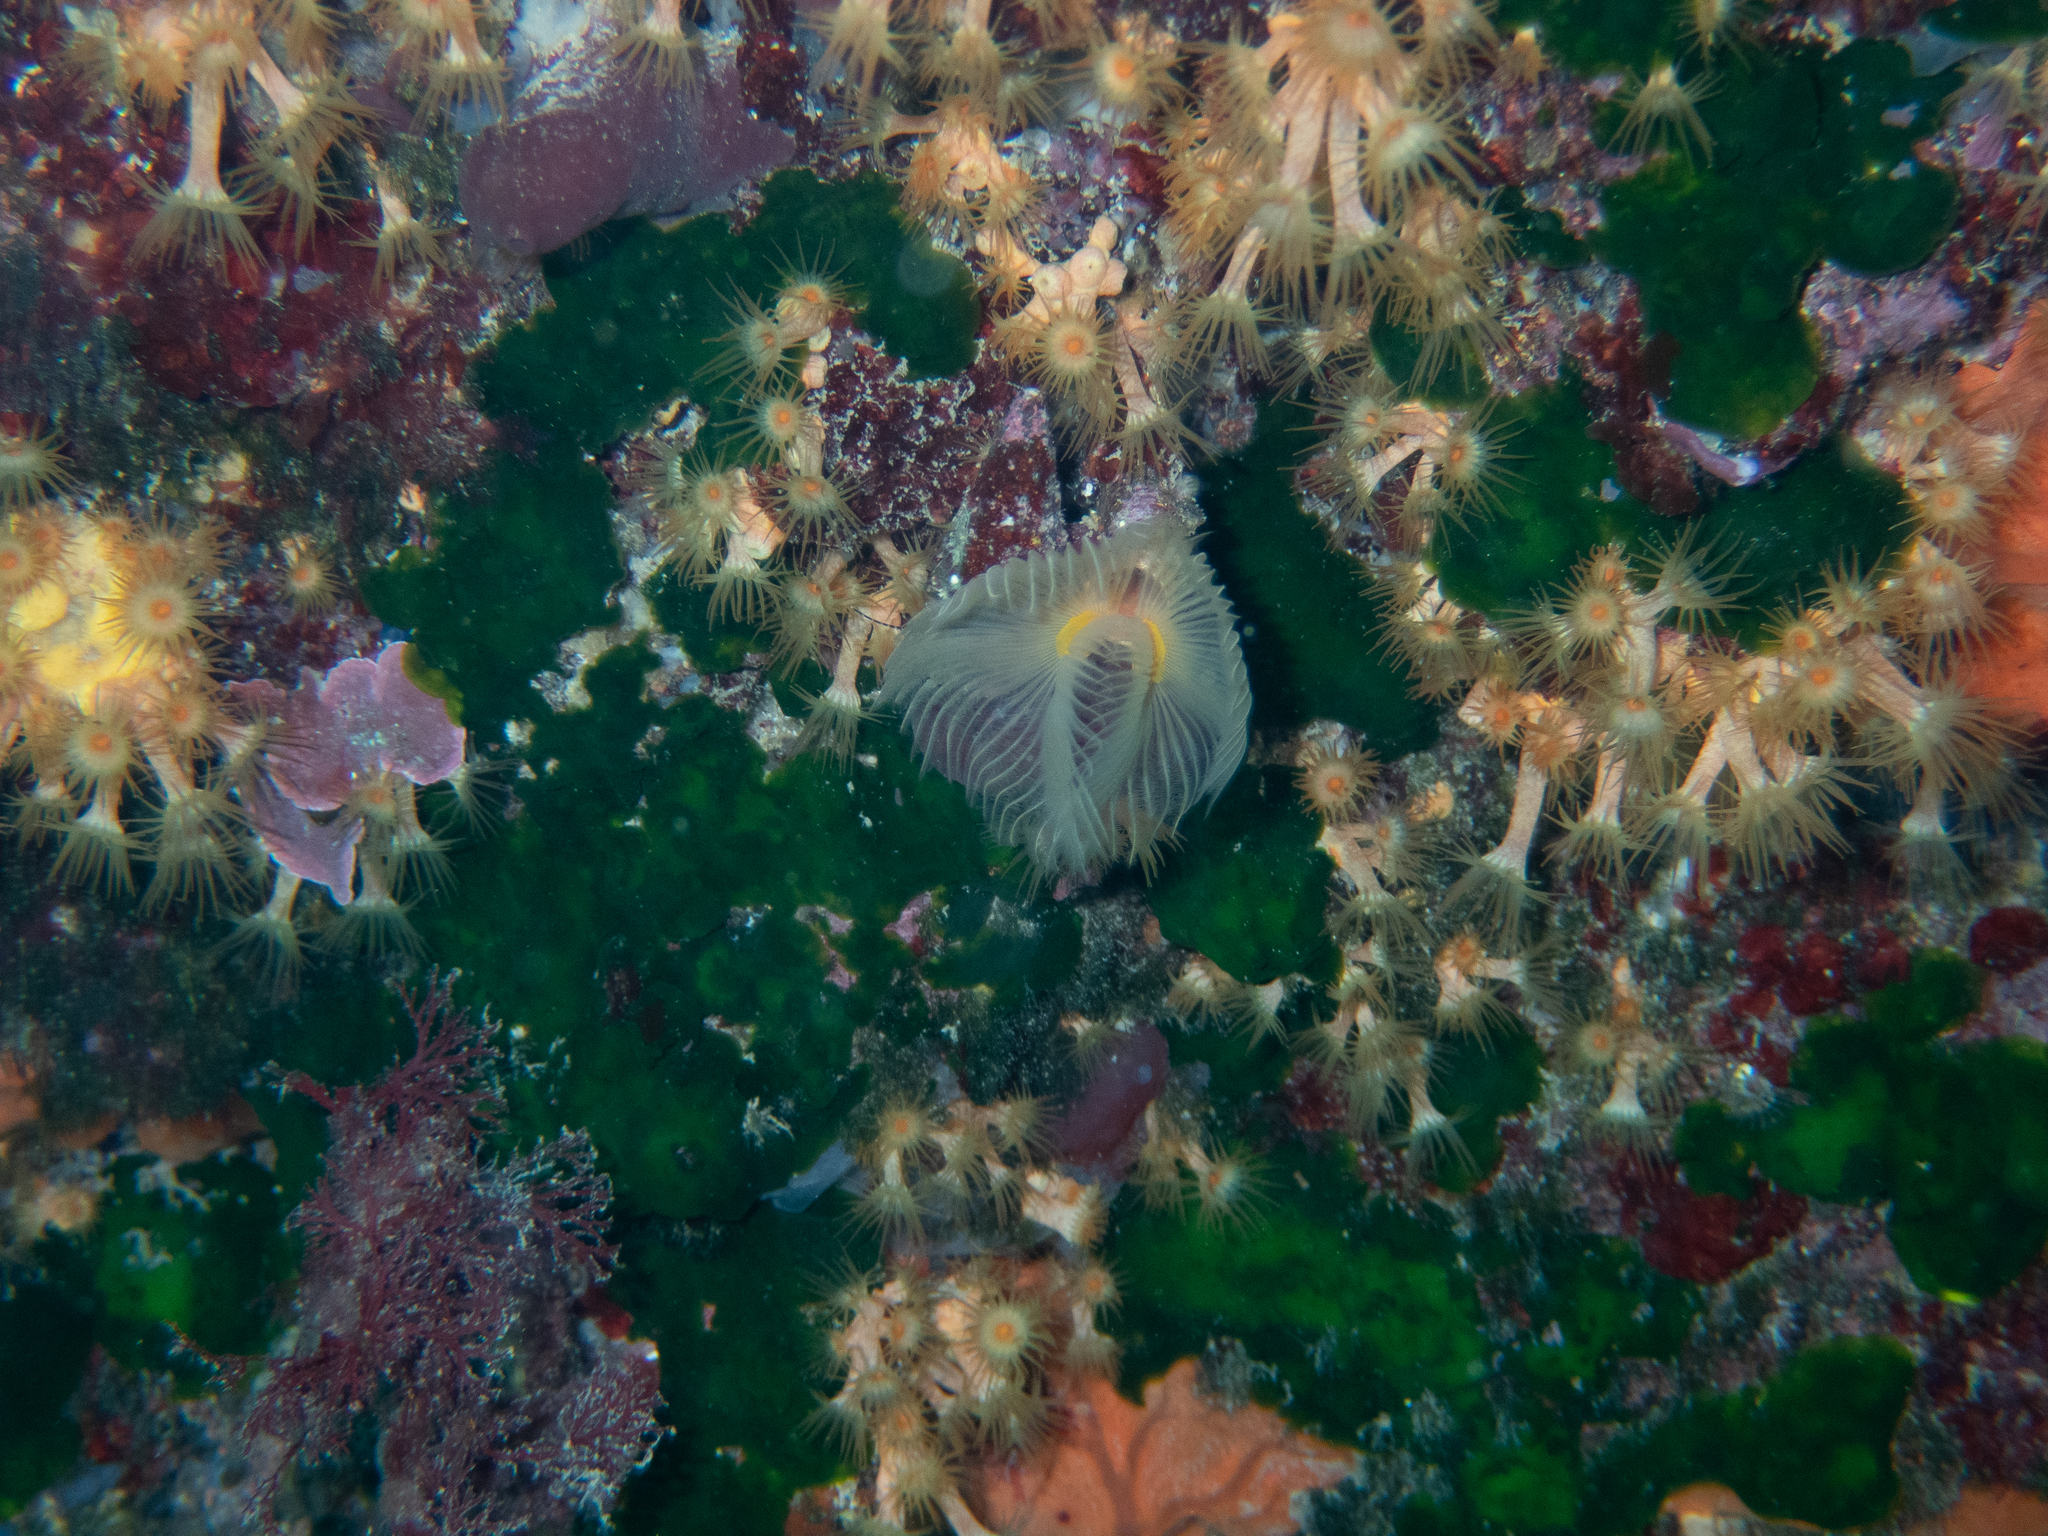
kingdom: Animalia
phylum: Annelida
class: Polychaeta
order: Sabellida
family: Serpulidae
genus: Protula
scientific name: Protula tubularia
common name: Red-spotted horseshoe
